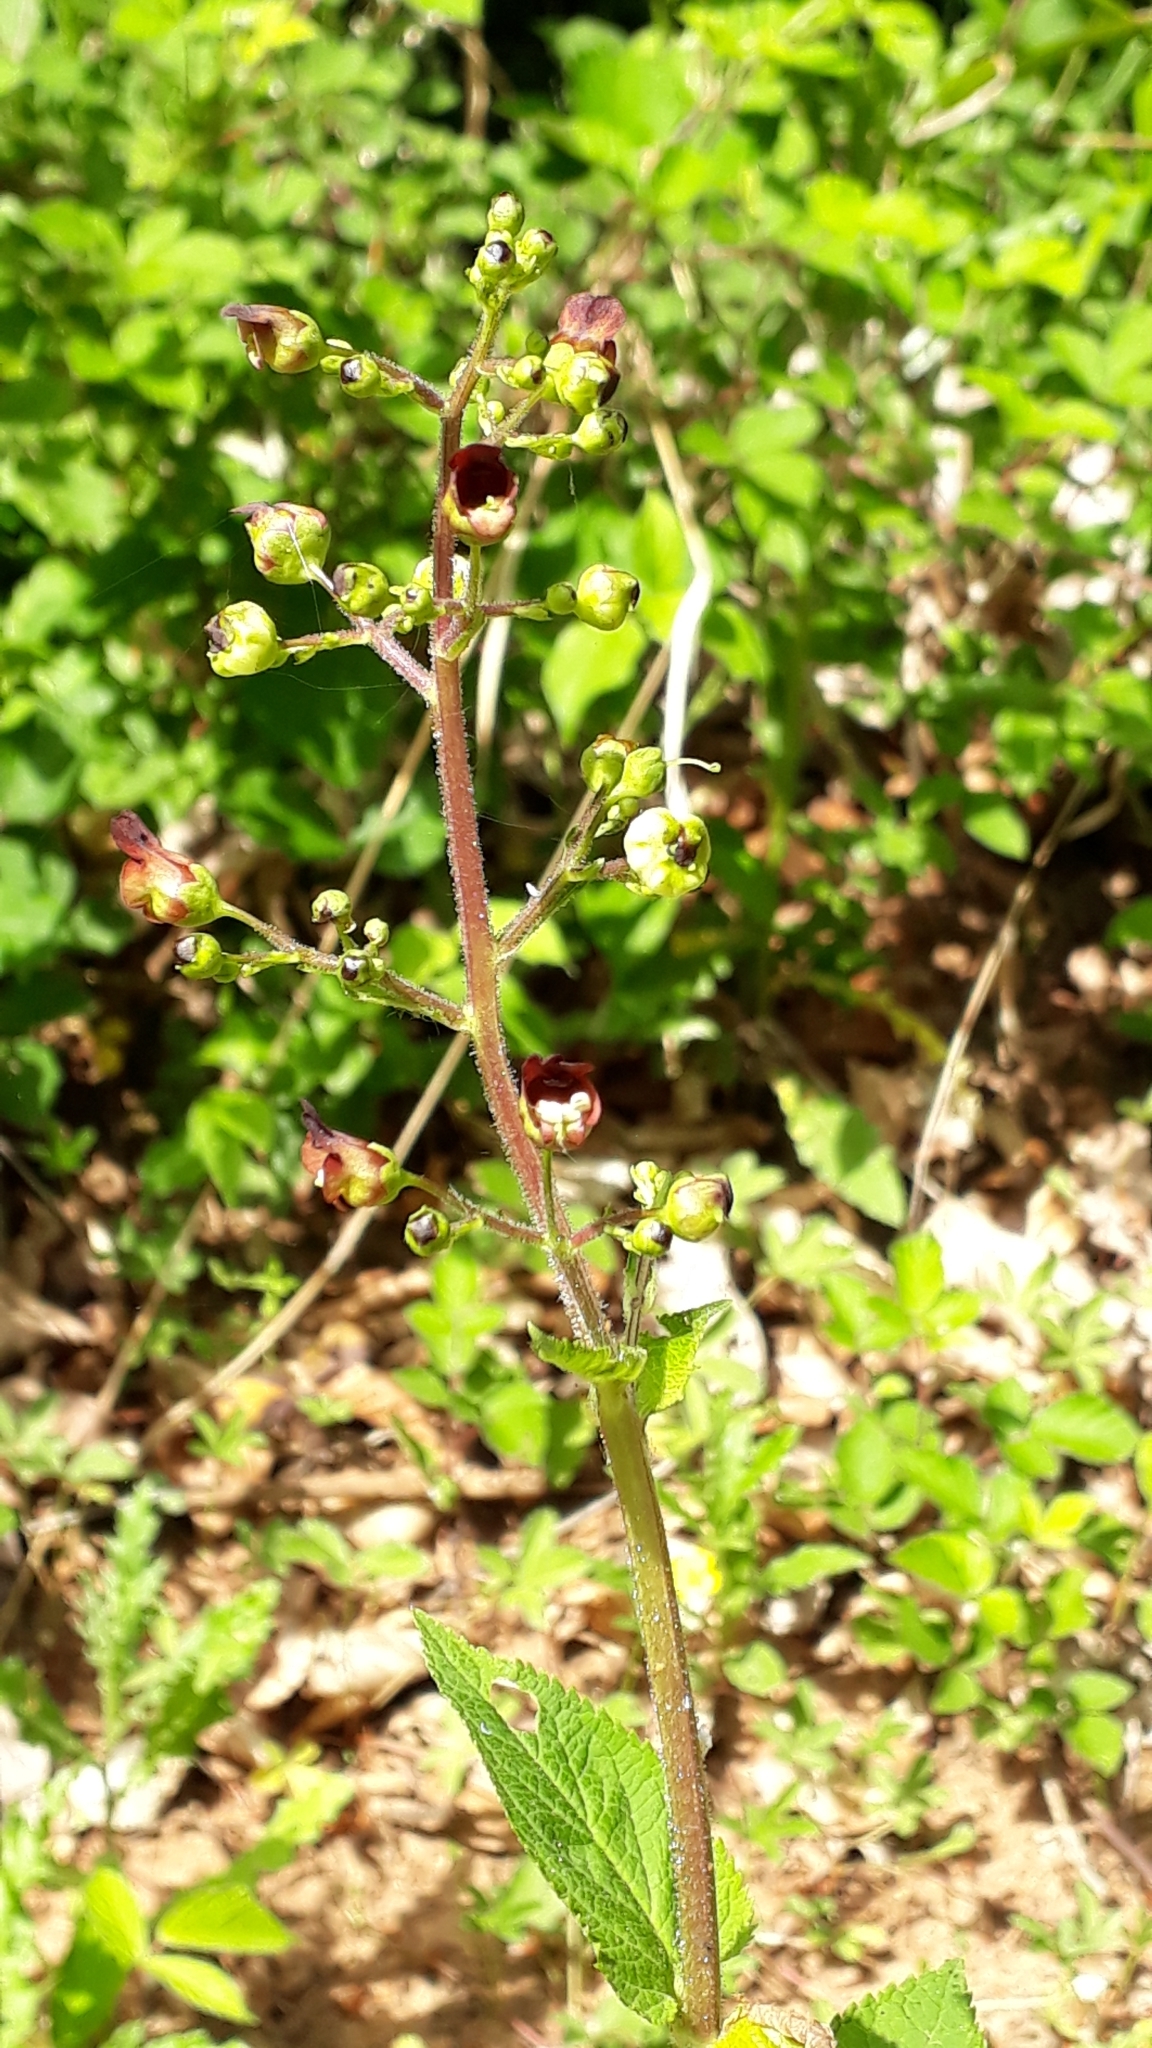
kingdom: Plantae
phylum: Tracheophyta
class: Magnoliopsida
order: Lamiales
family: Scrophulariaceae
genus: Scrophularia
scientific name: Scrophularia nodosa
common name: Common figwort
